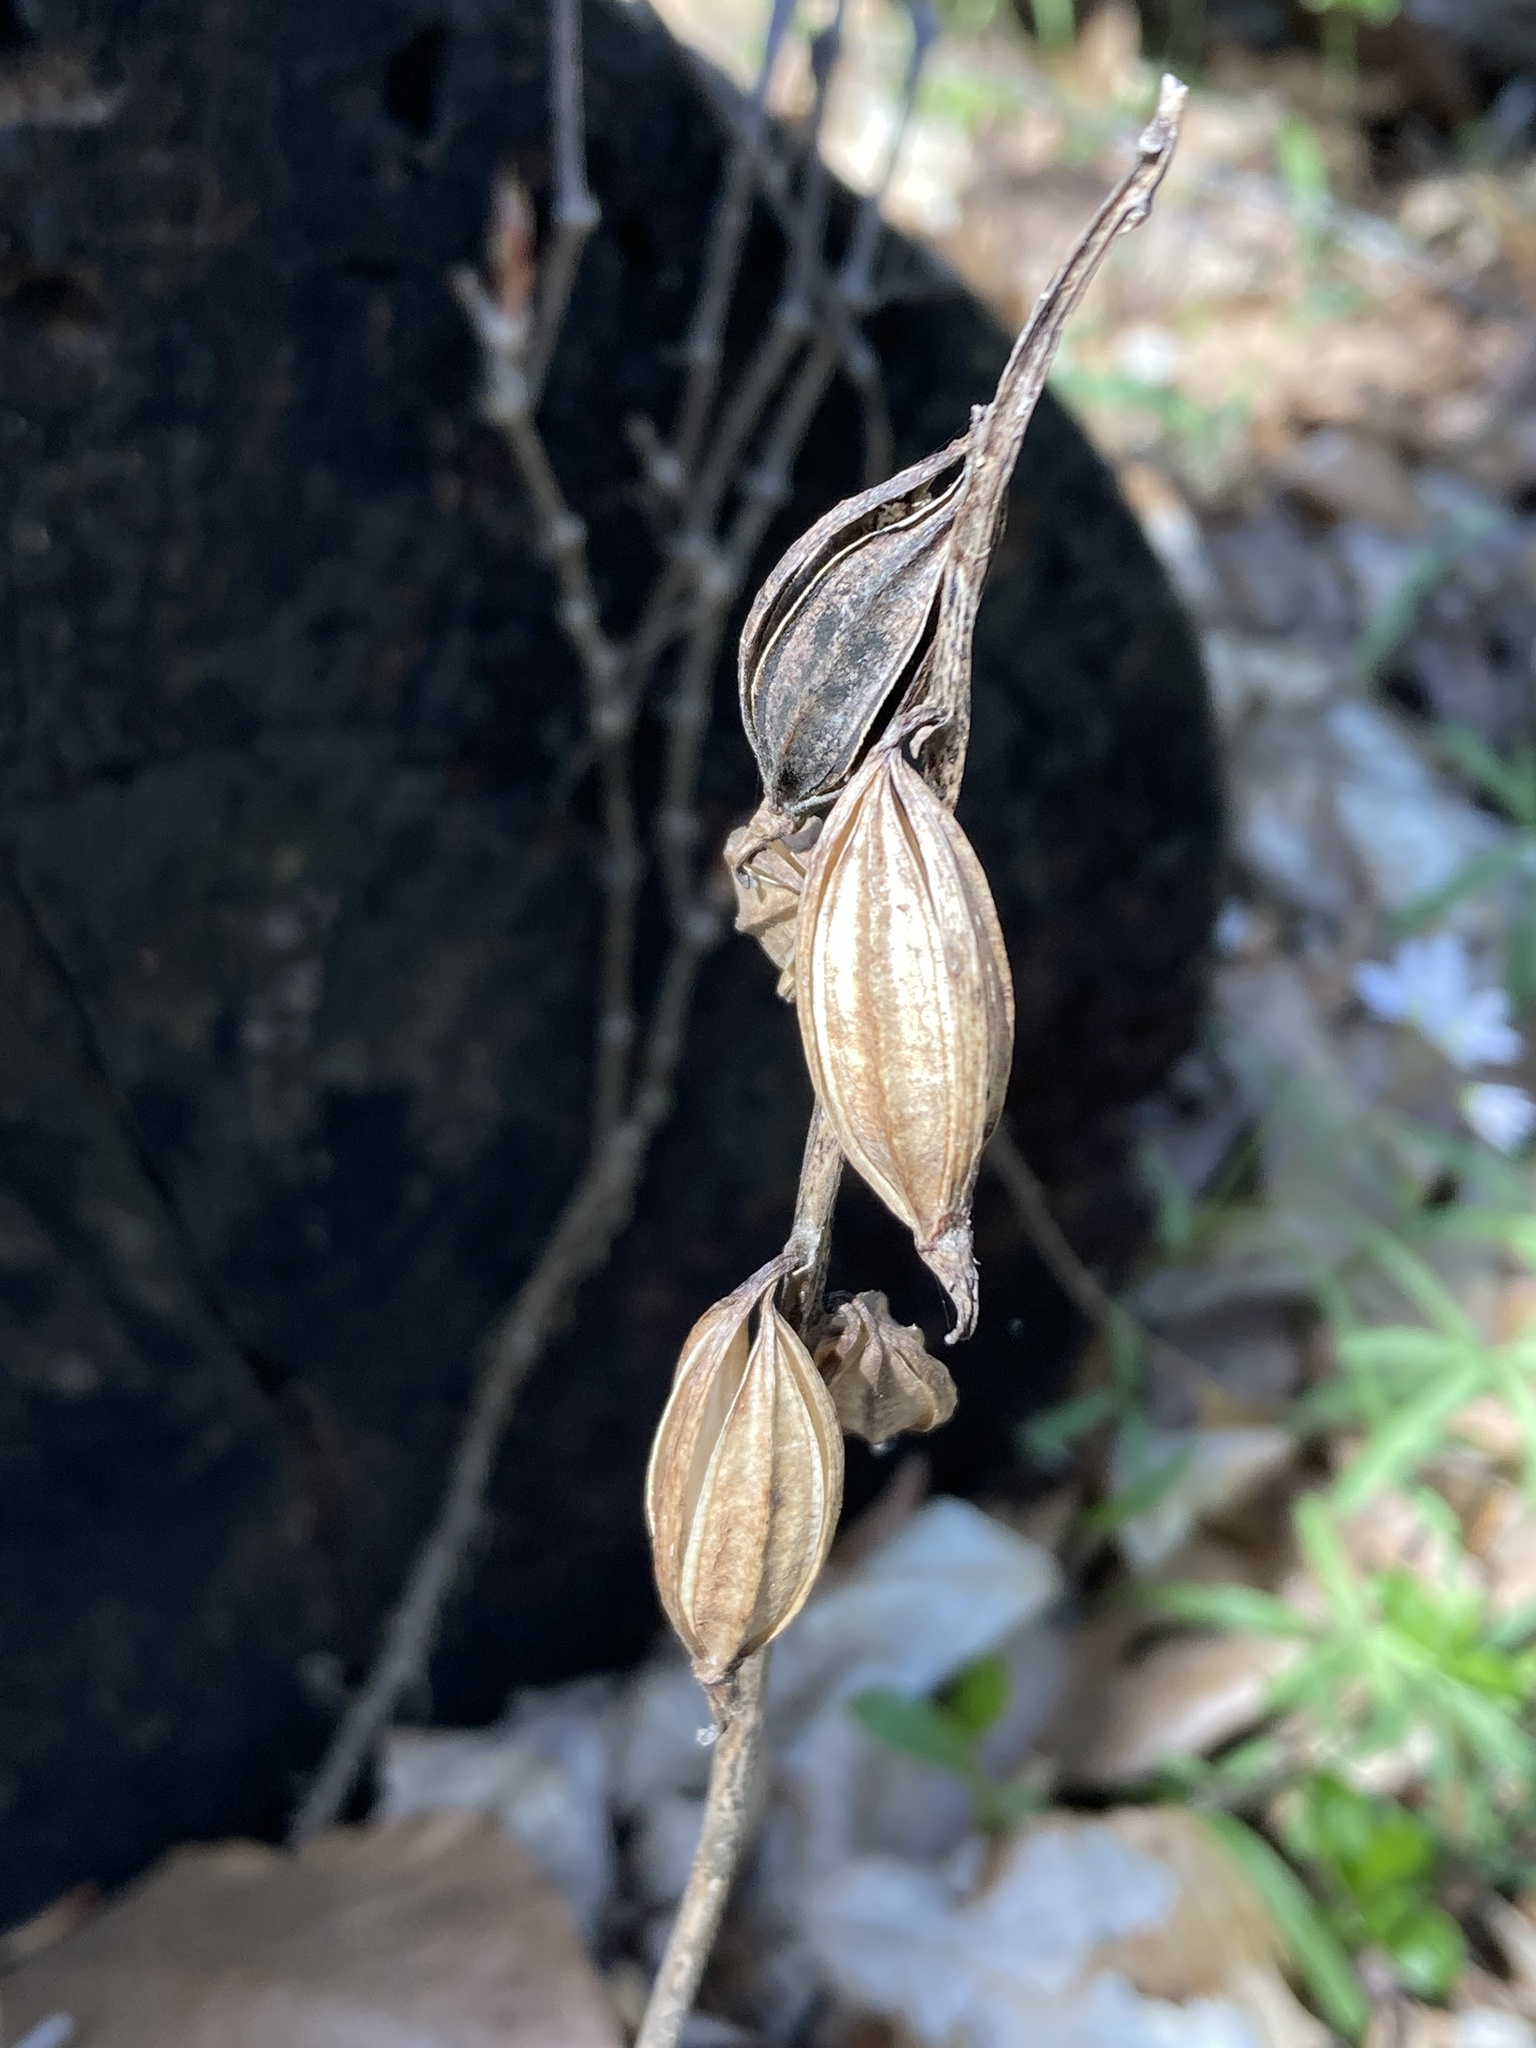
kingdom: Plantae
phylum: Tracheophyta
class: Liliopsida
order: Asparagales
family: Orchidaceae
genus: Aplectrum
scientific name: Aplectrum hyemale
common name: Adam-and-eve
